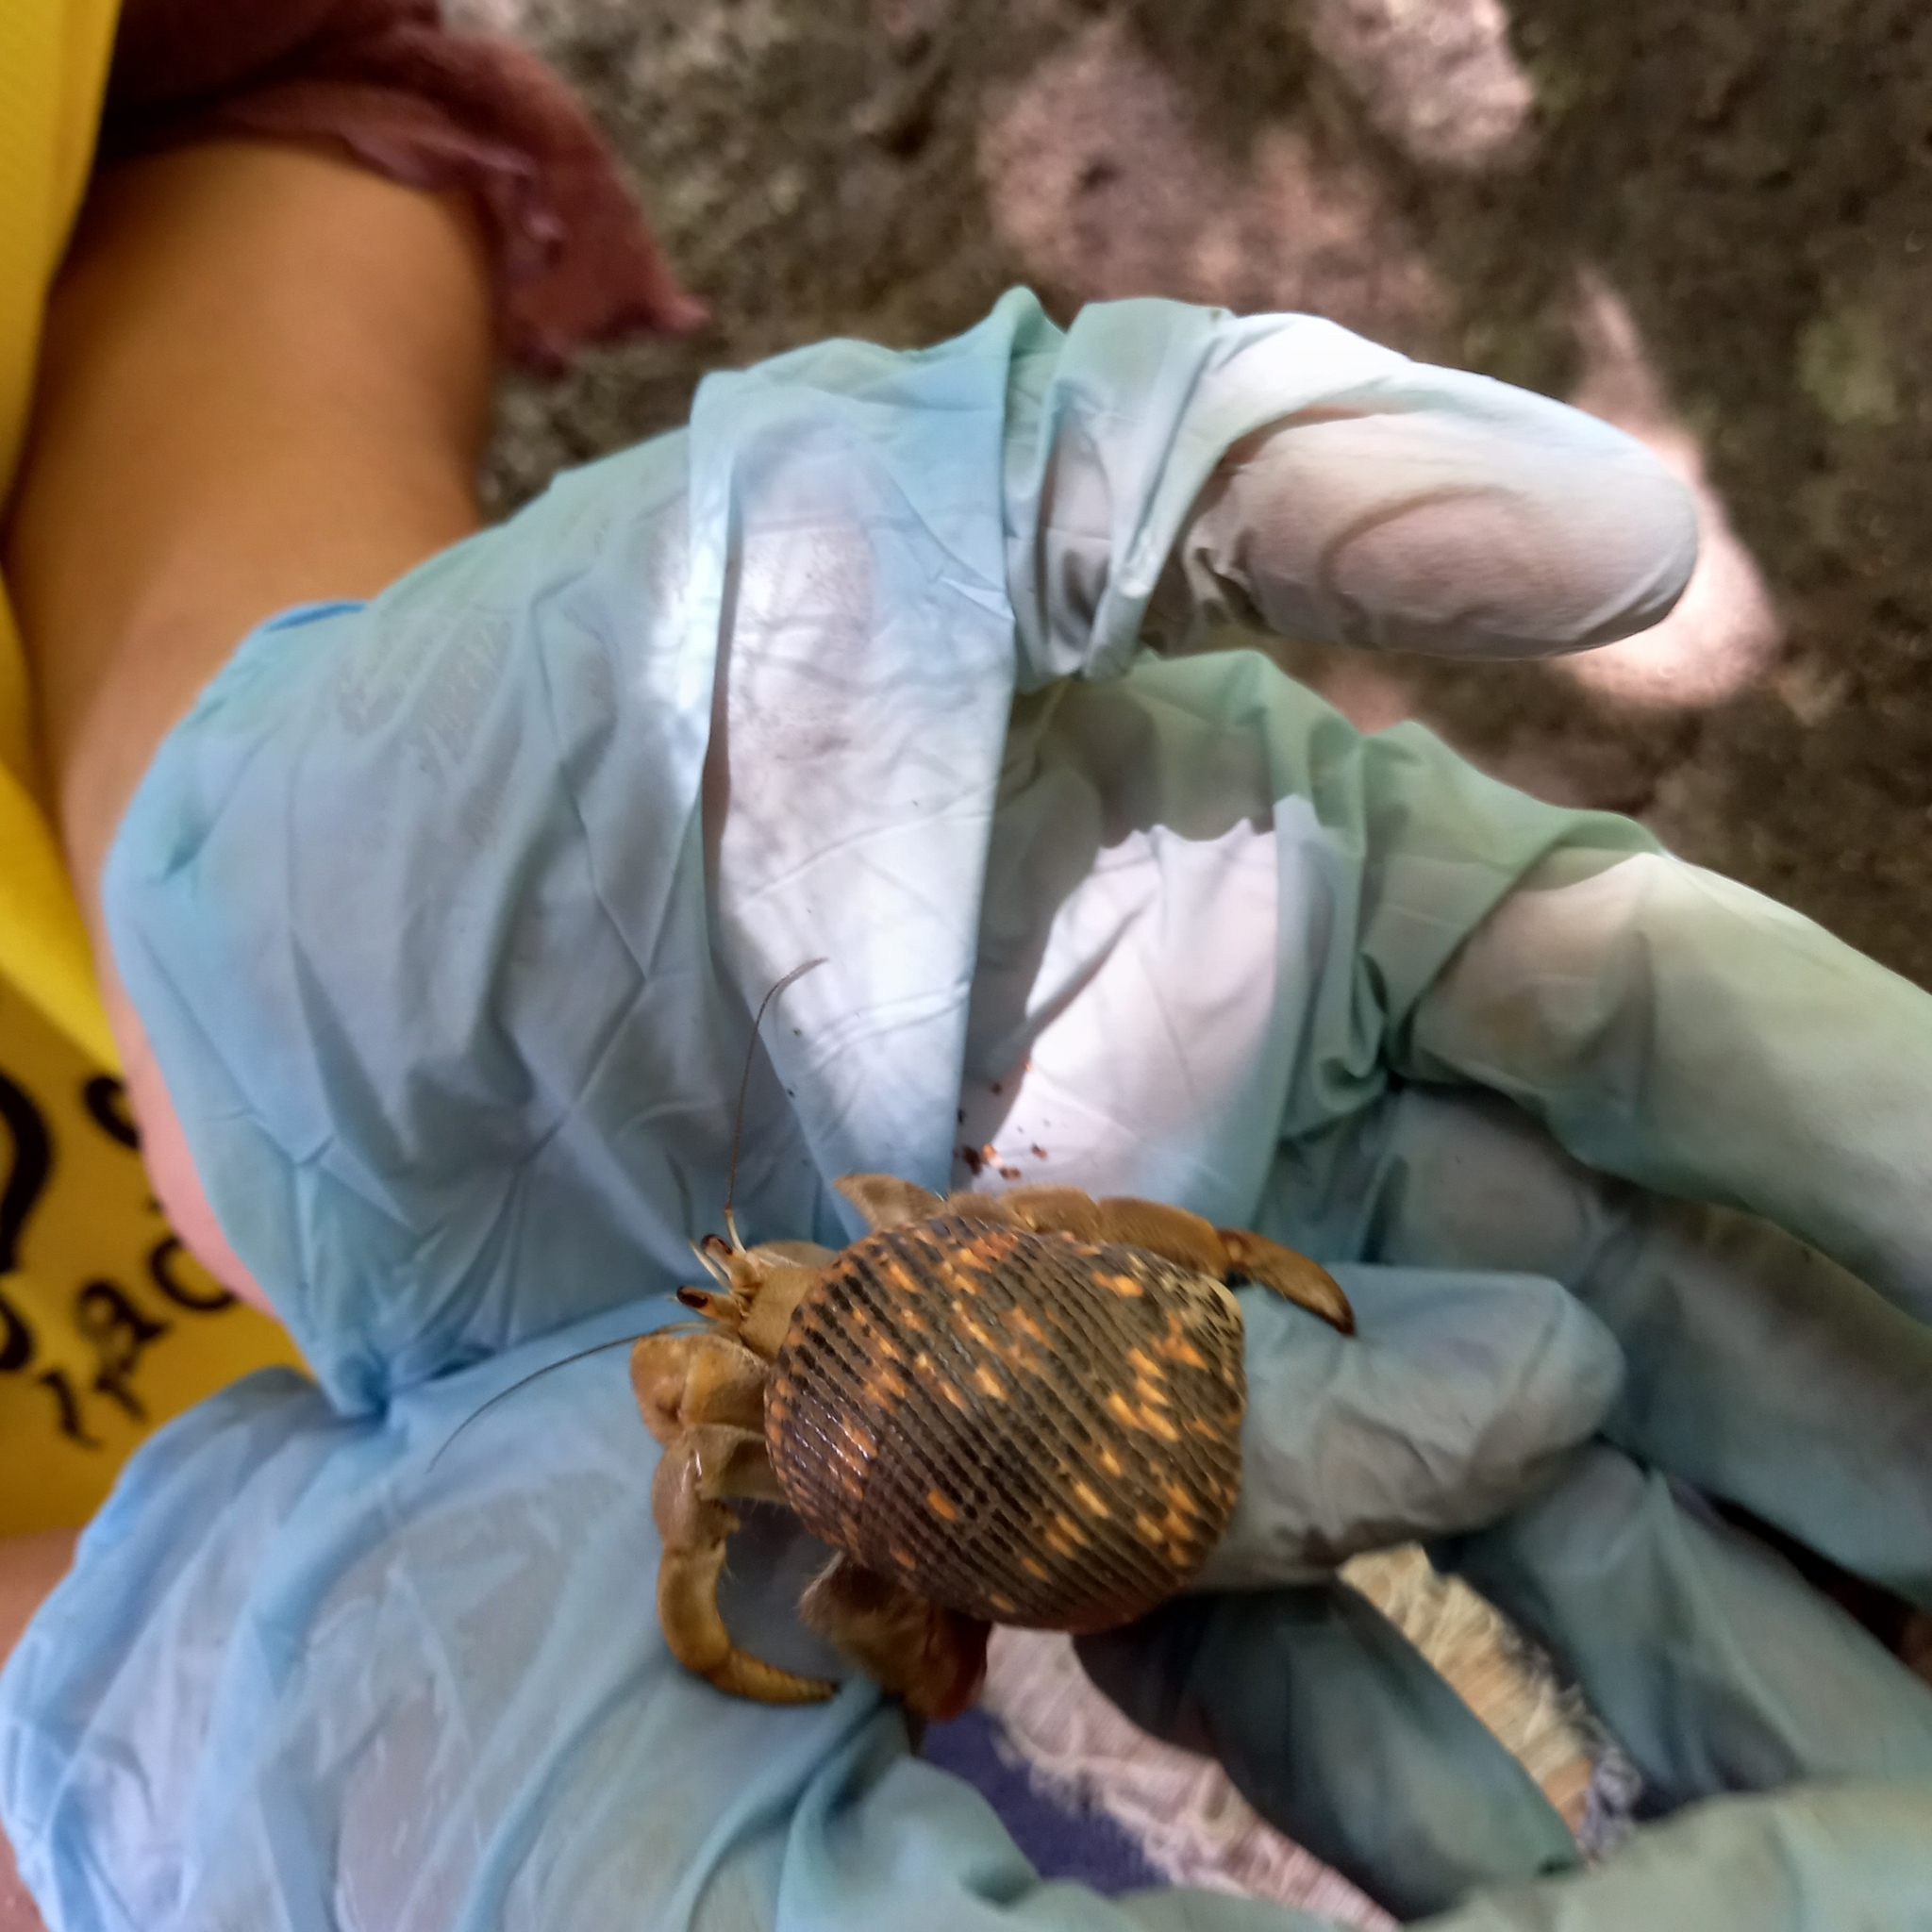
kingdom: Animalia
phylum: Arthropoda
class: Malacostraca
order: Decapoda
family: Coenobitidae
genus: Coenobita
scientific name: Coenobita compressus
